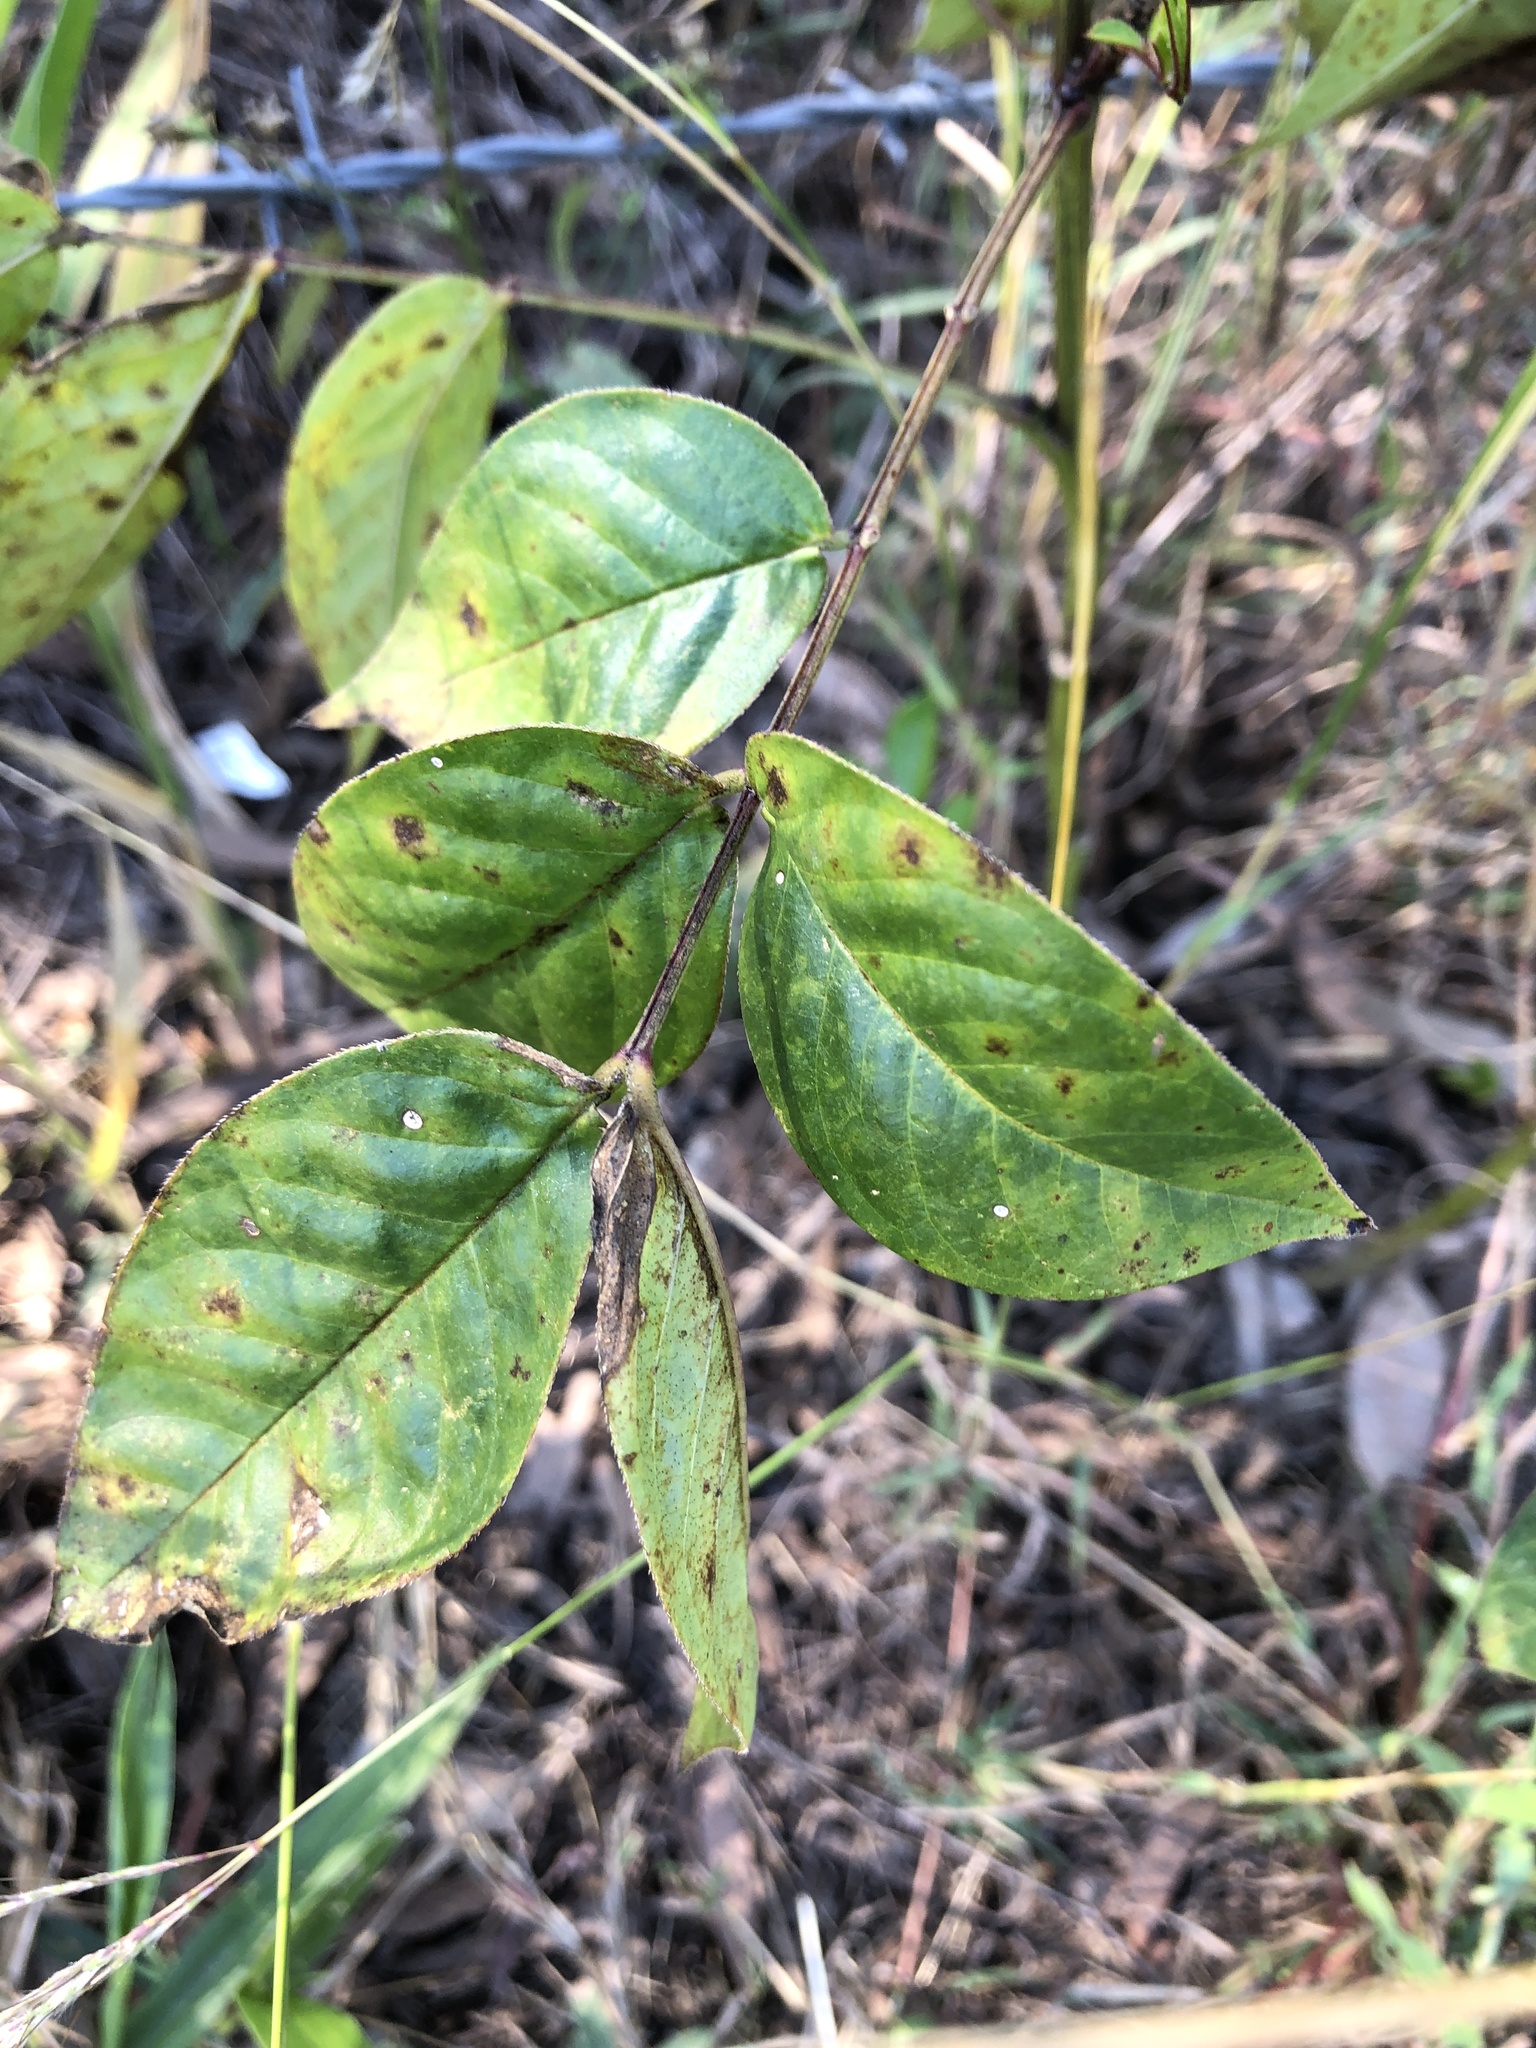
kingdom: Plantae
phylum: Tracheophyta
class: Magnoliopsida
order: Fabales
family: Fabaceae
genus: Senna
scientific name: Senna occidentalis
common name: Septicweed
